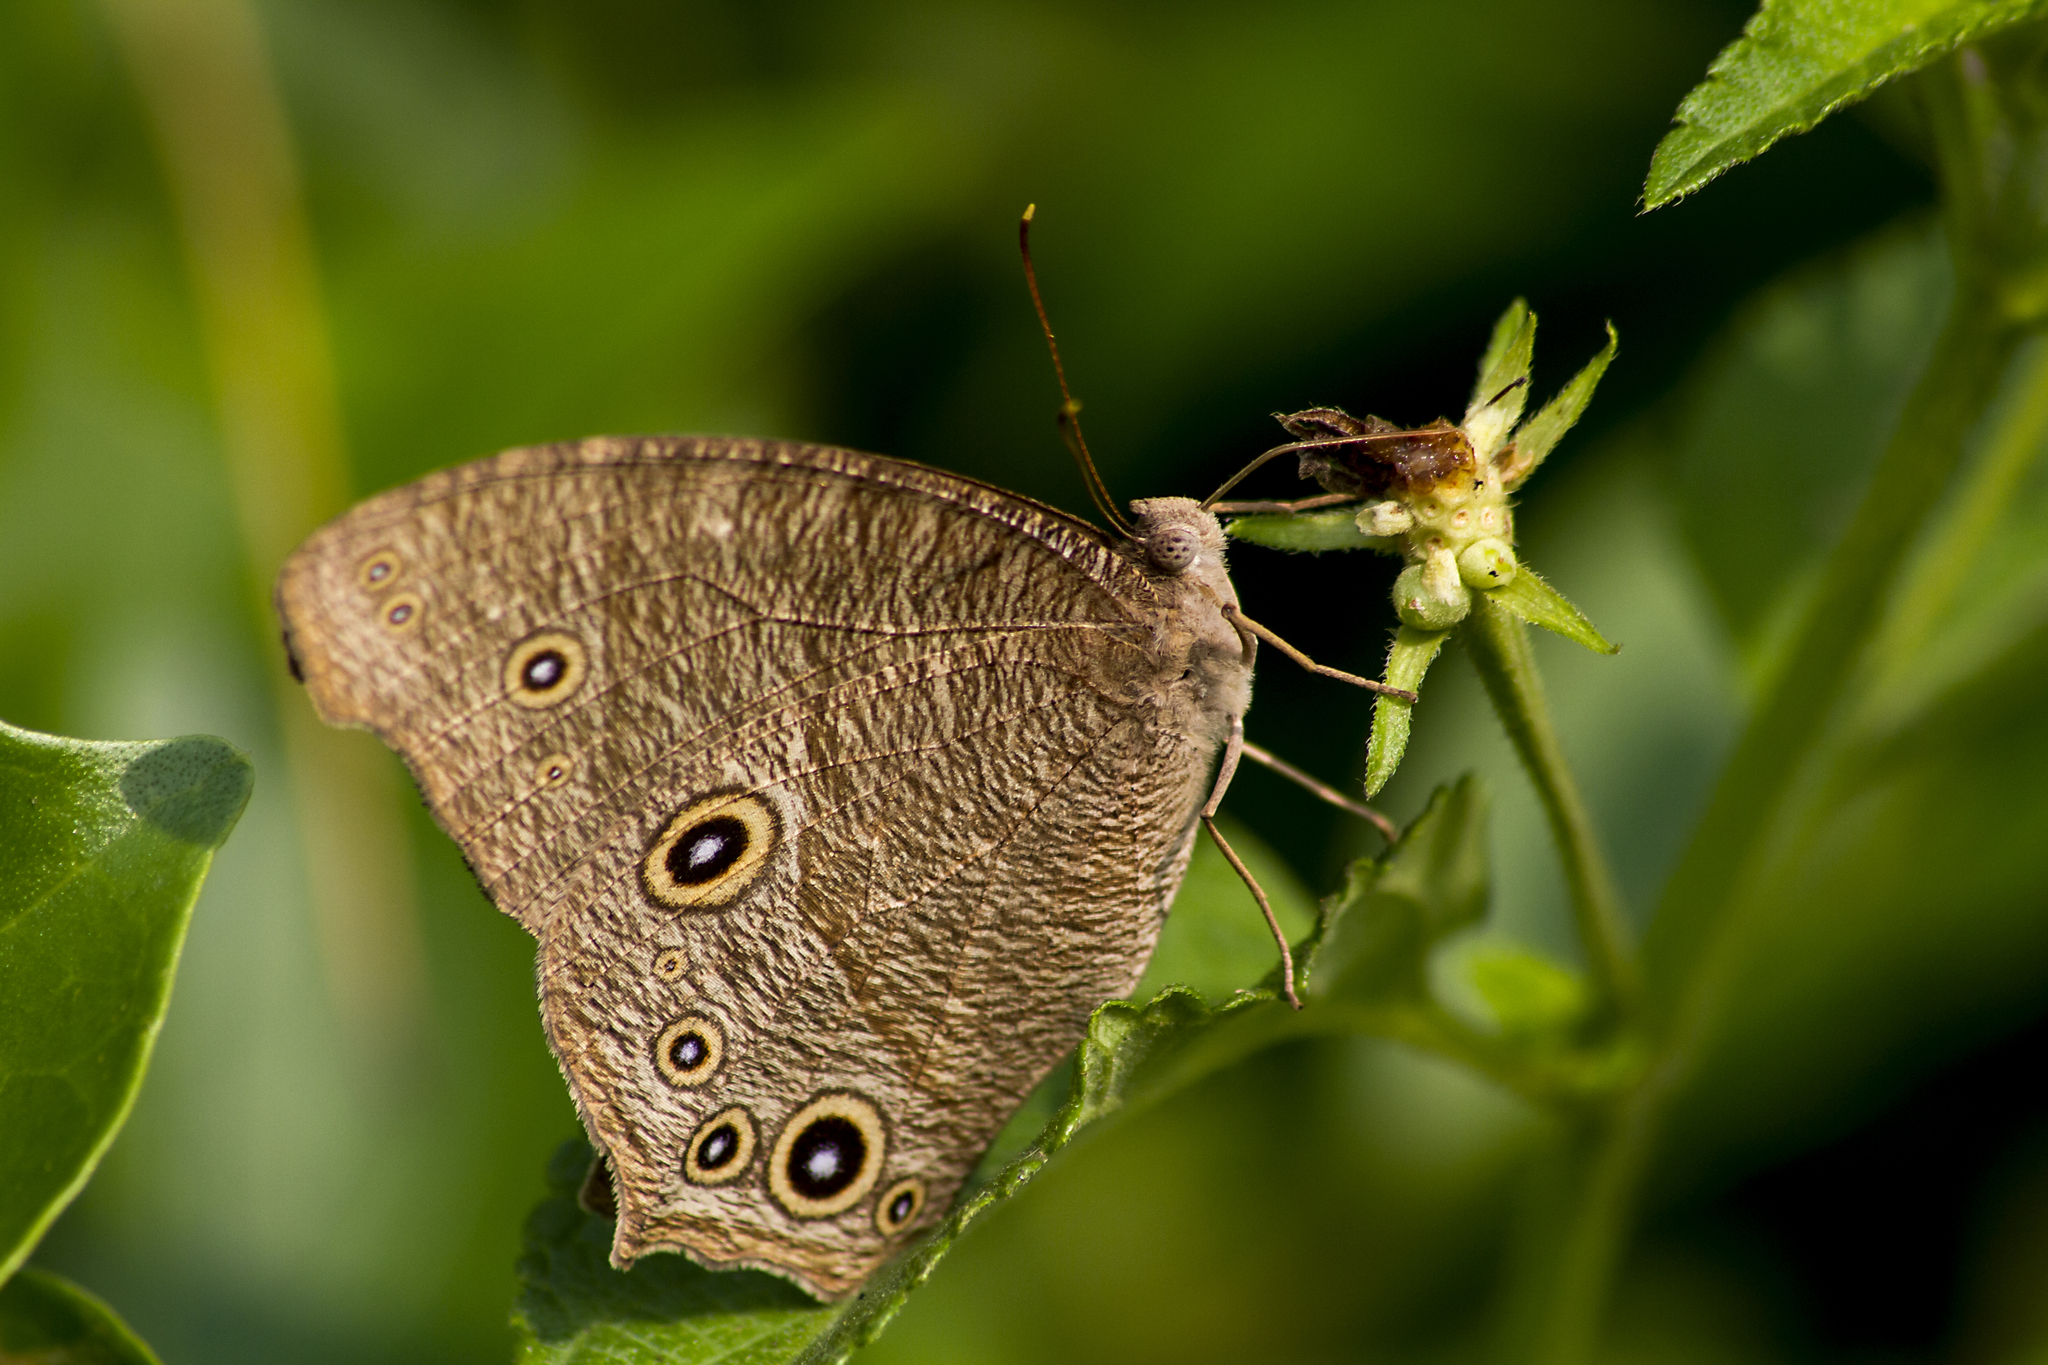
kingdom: Animalia
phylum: Arthropoda
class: Insecta
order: Lepidoptera
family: Nymphalidae
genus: Melanitis
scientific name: Melanitis leda
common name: Twilight brown
